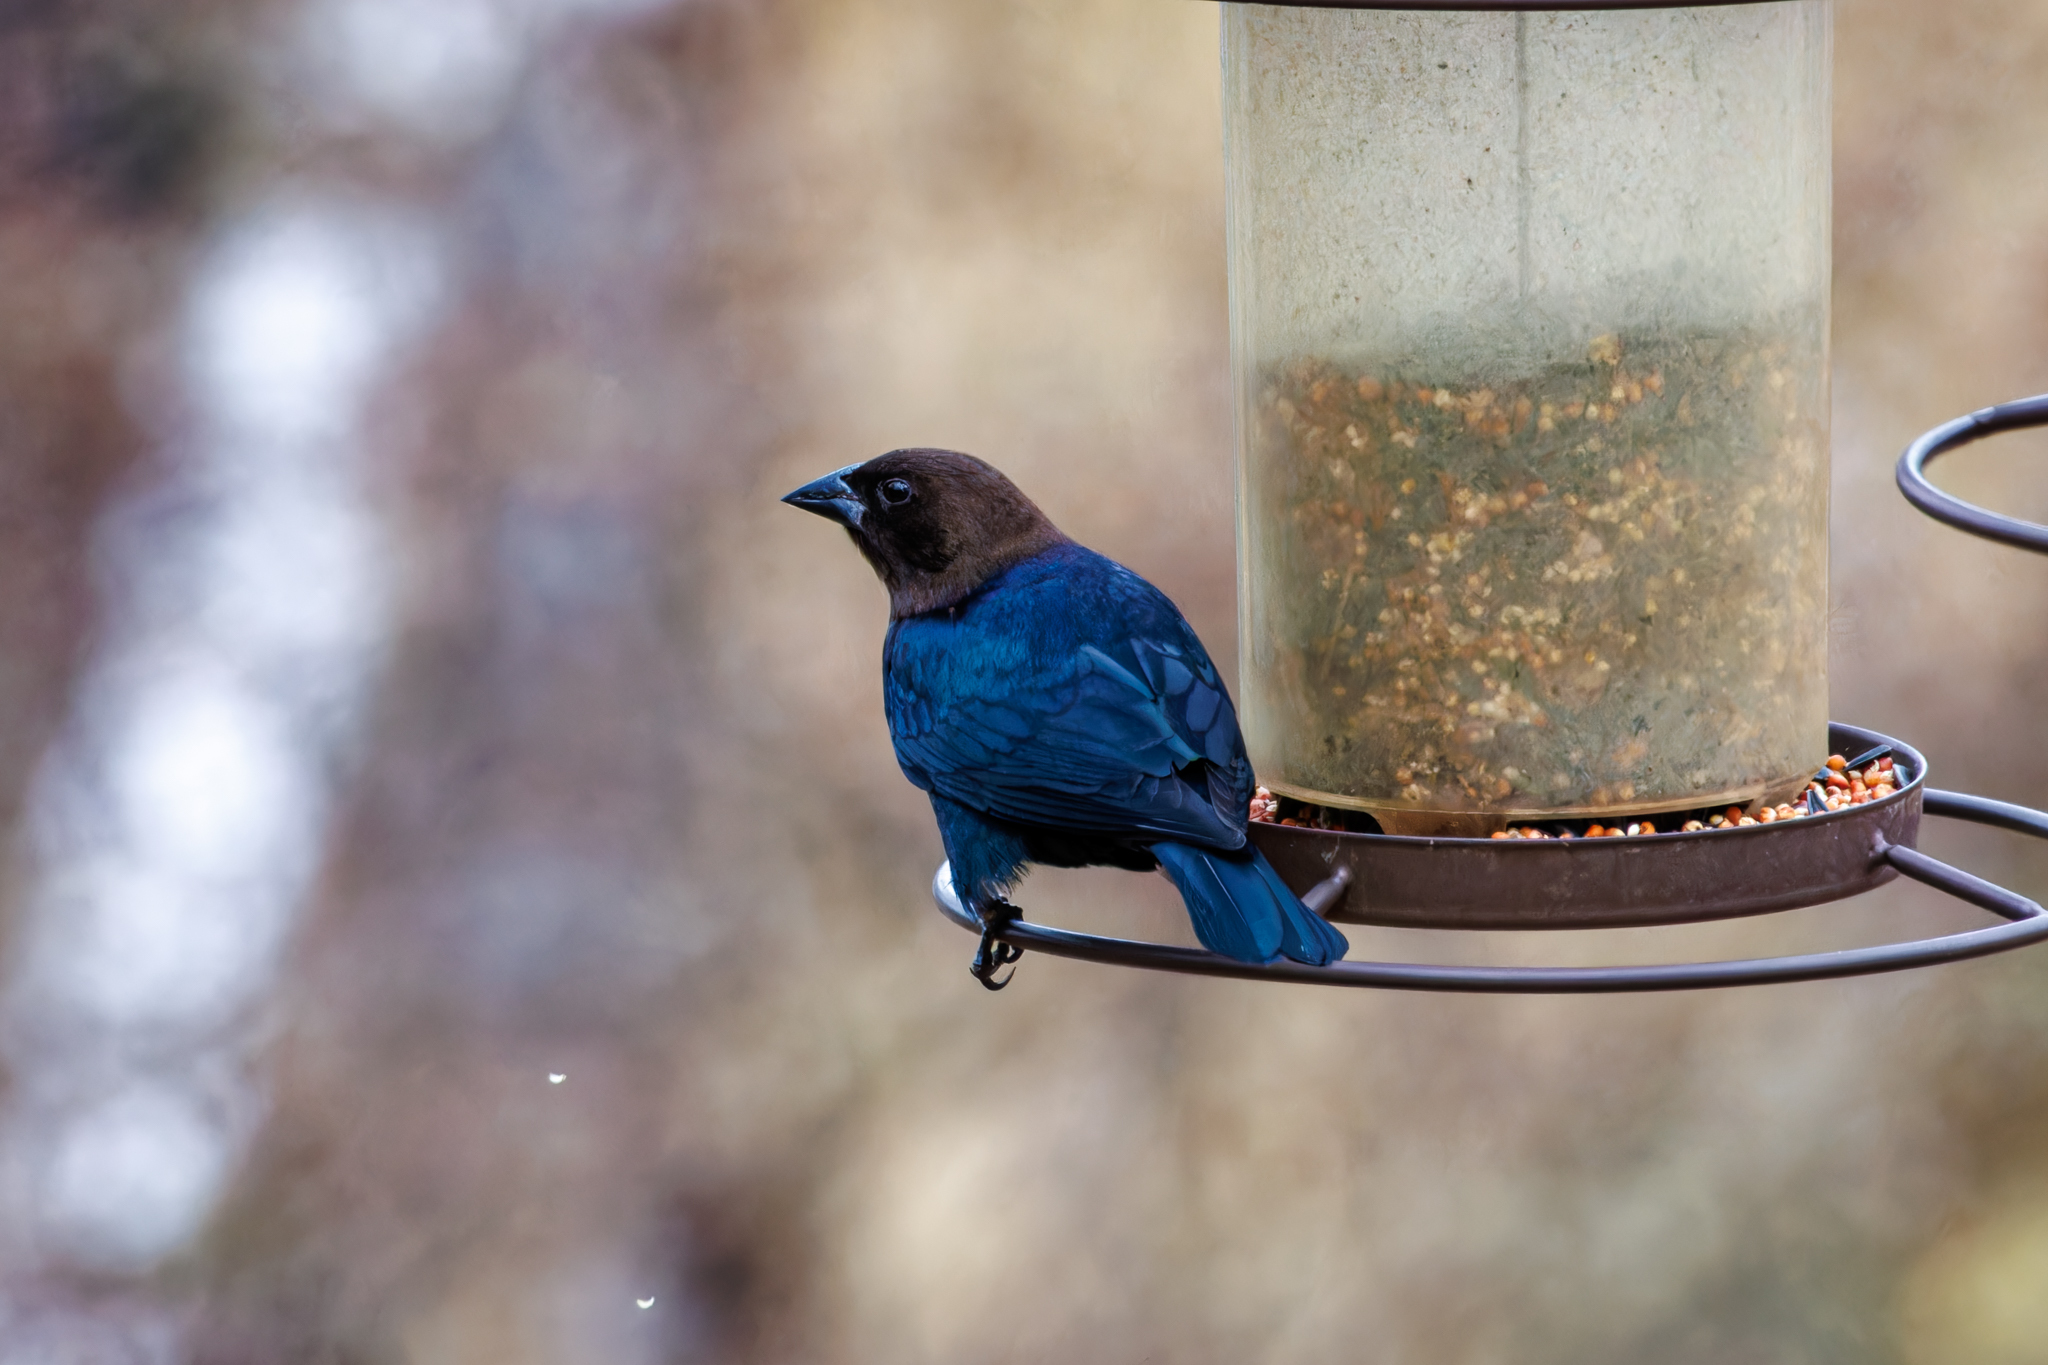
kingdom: Animalia
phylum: Chordata
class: Aves
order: Passeriformes
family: Icteridae
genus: Molothrus
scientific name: Molothrus ater
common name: Brown-headed cowbird
